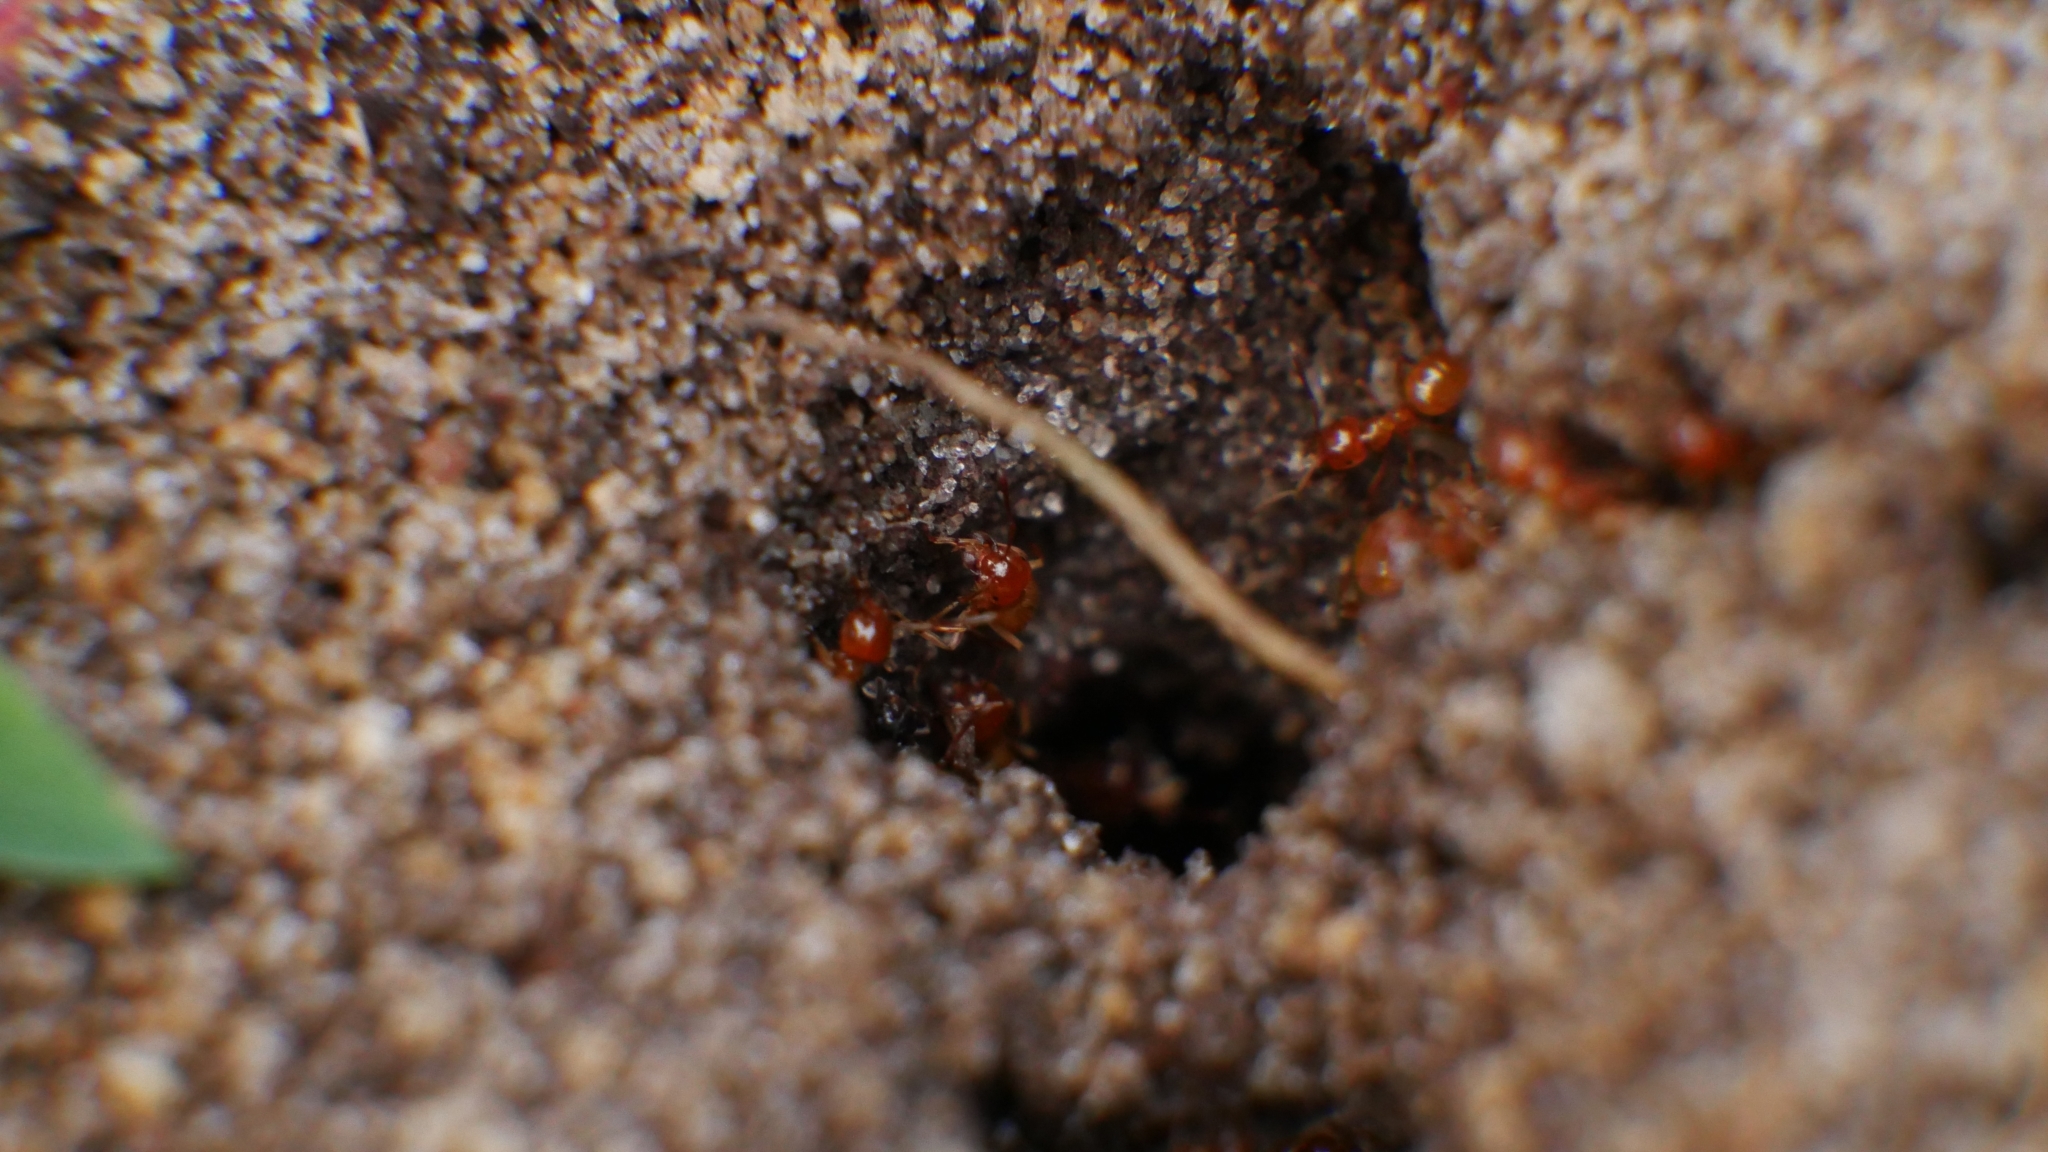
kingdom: Animalia
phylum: Arthropoda
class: Insecta
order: Hymenoptera
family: Formicidae
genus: Acanthomyops
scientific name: Acanthomyops
